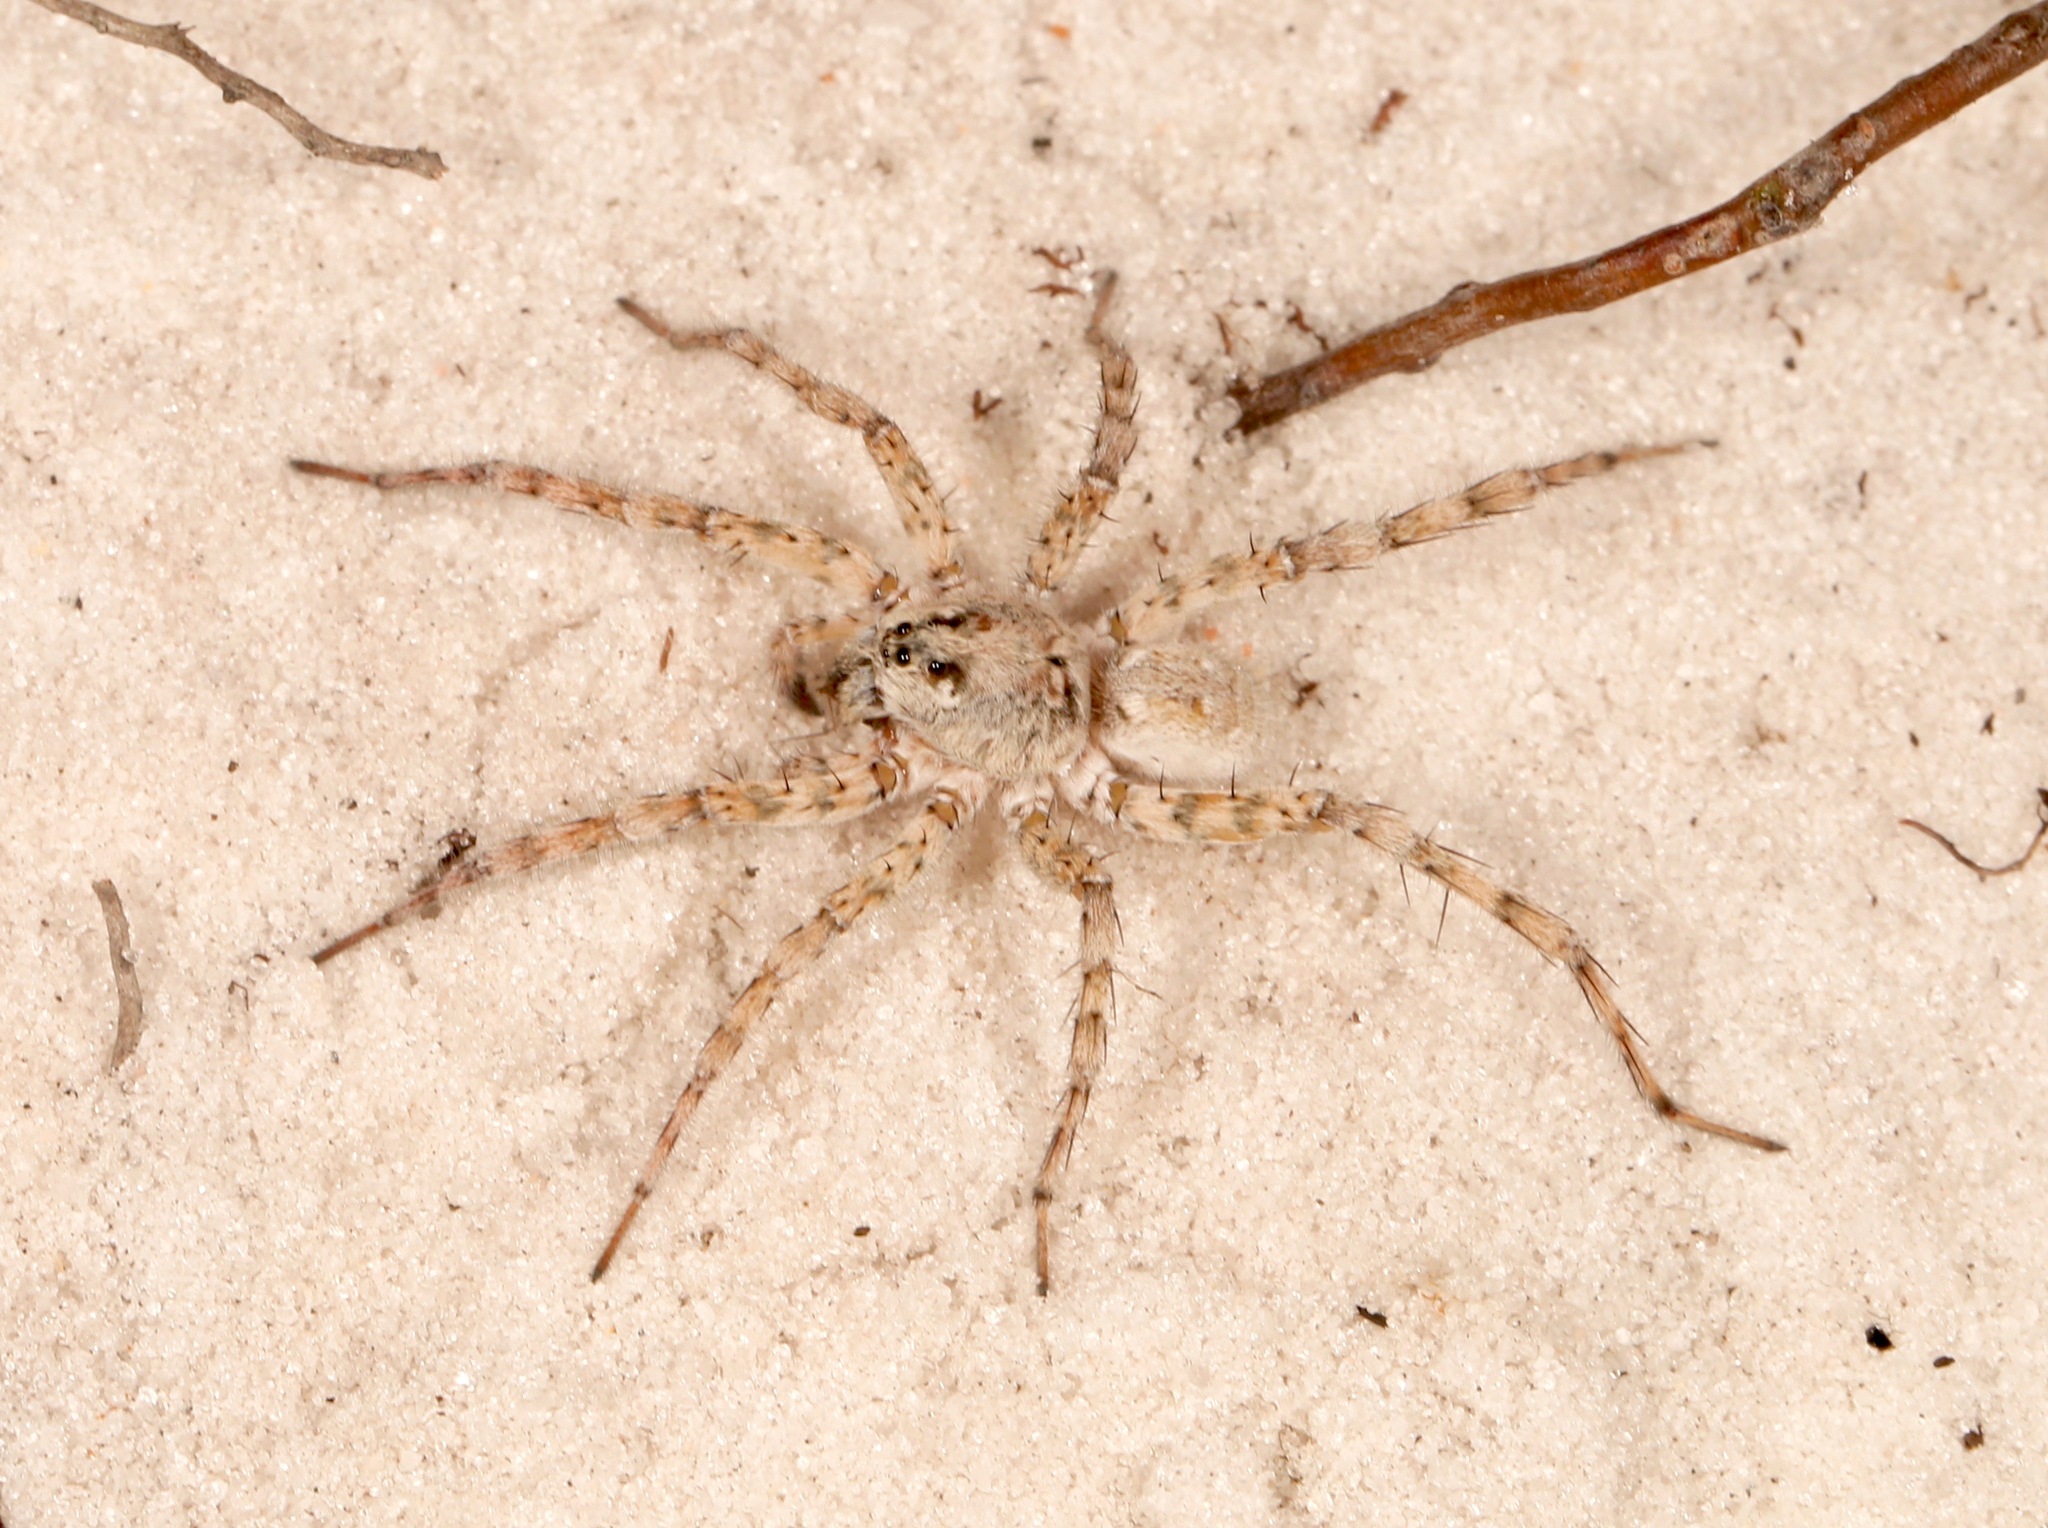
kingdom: Animalia
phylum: Arthropoda
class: Arachnida
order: Araneae
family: Lycosidae
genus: Arctosa
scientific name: Arctosa littoralis
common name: Wolf spiders
